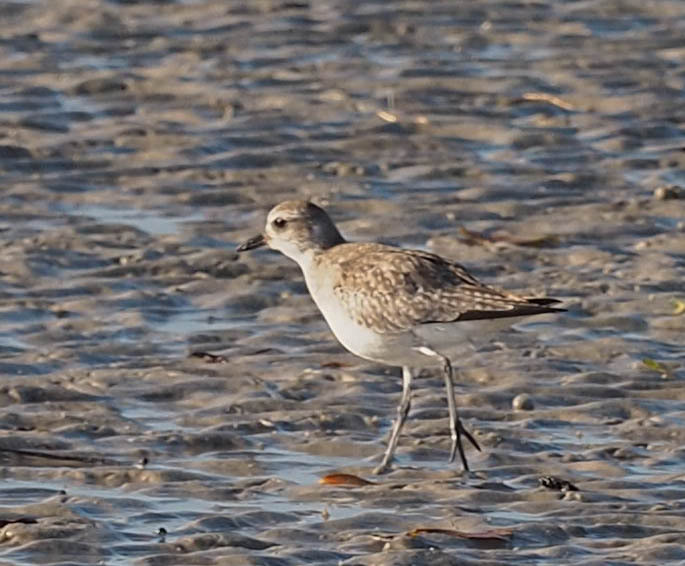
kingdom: Animalia
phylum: Chordata
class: Aves
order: Charadriiformes
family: Charadriidae
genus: Pluvialis
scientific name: Pluvialis squatarola
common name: Grey plover
